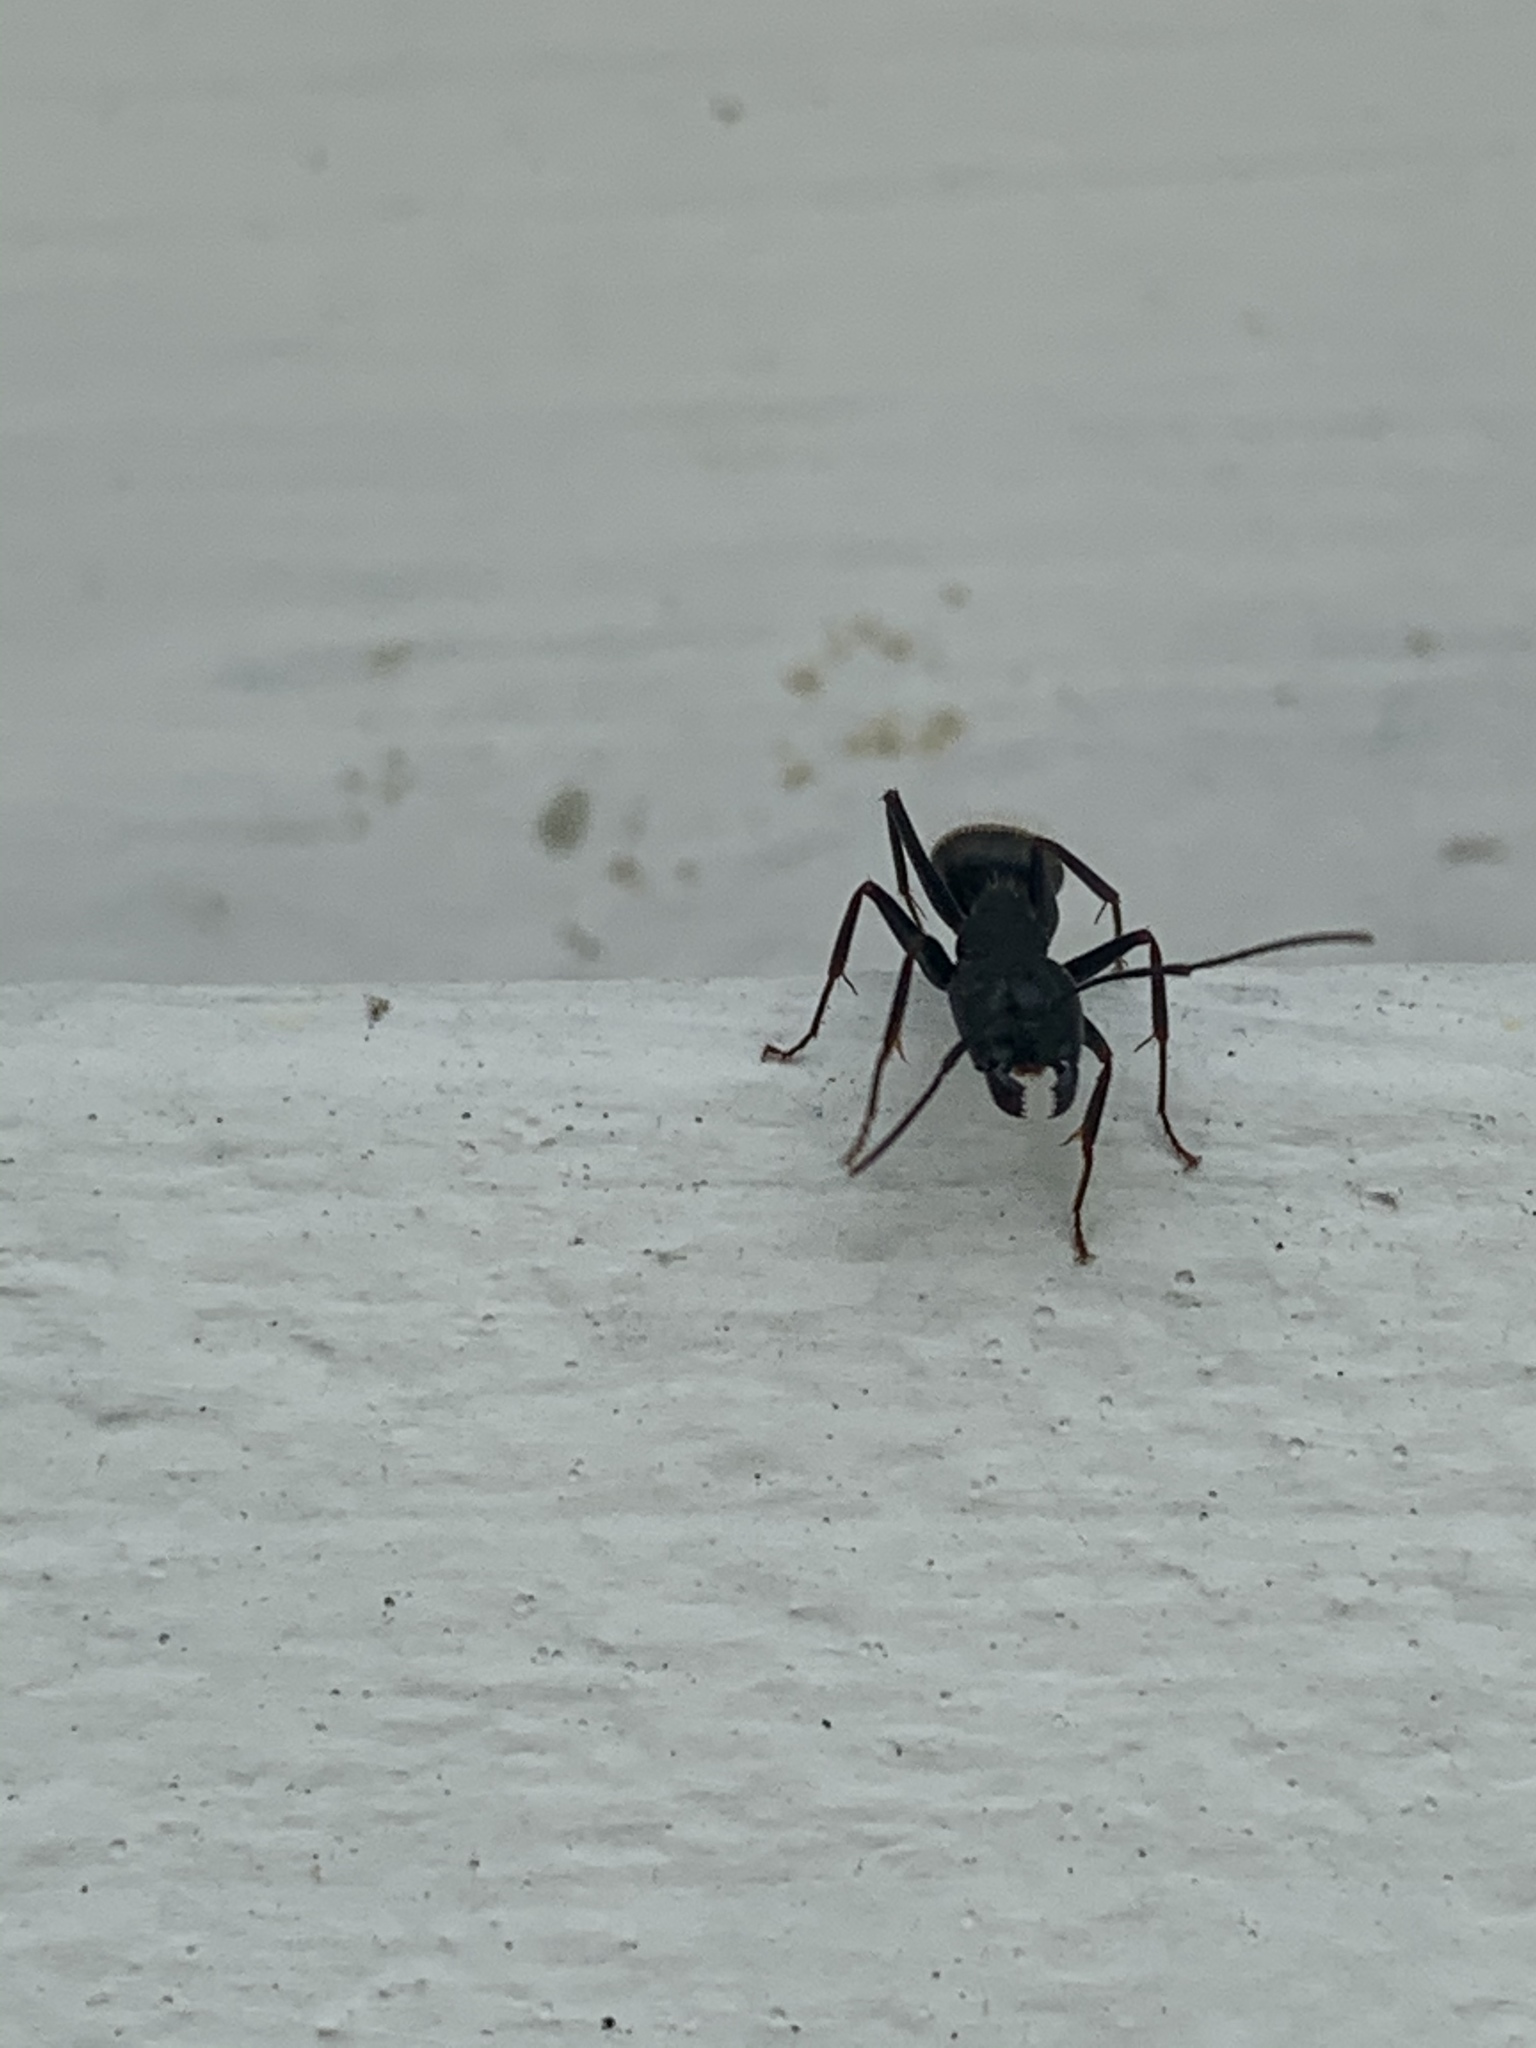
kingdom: Animalia
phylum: Arthropoda
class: Insecta
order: Hymenoptera
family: Formicidae
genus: Camponotus
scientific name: Camponotus pennsylvanicus
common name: Black carpenter ant
